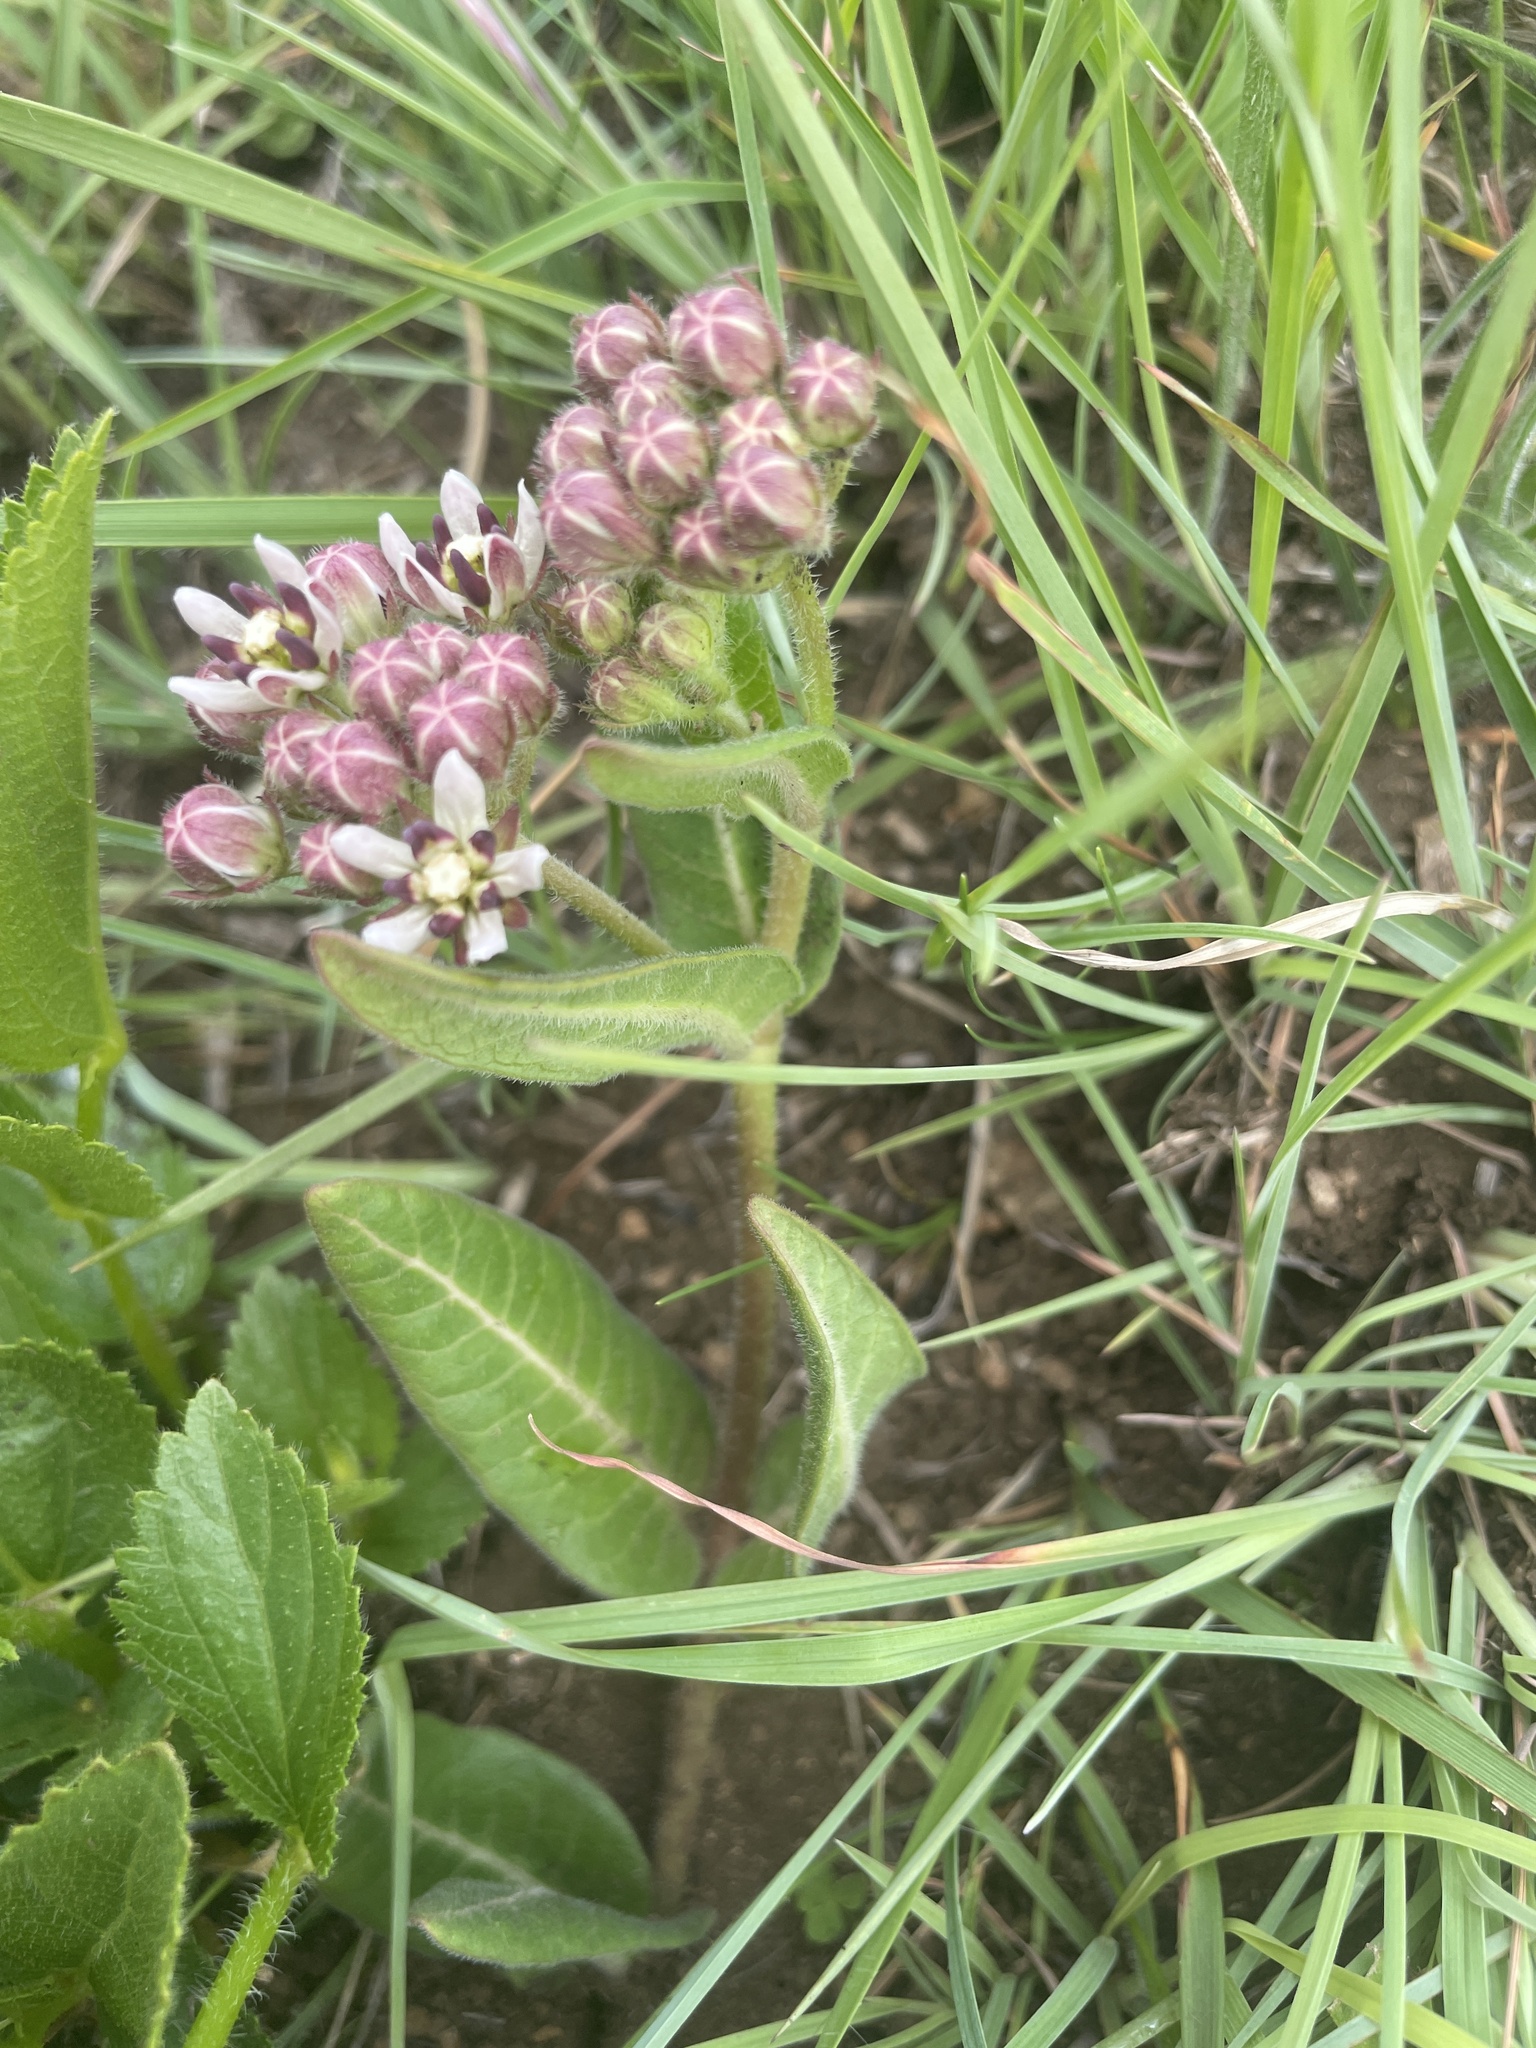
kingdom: Plantae
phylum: Tracheophyta
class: Magnoliopsida
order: Gentianales
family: Apocynaceae
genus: Xysmalobium
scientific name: Xysmalobium pedifoetidum
